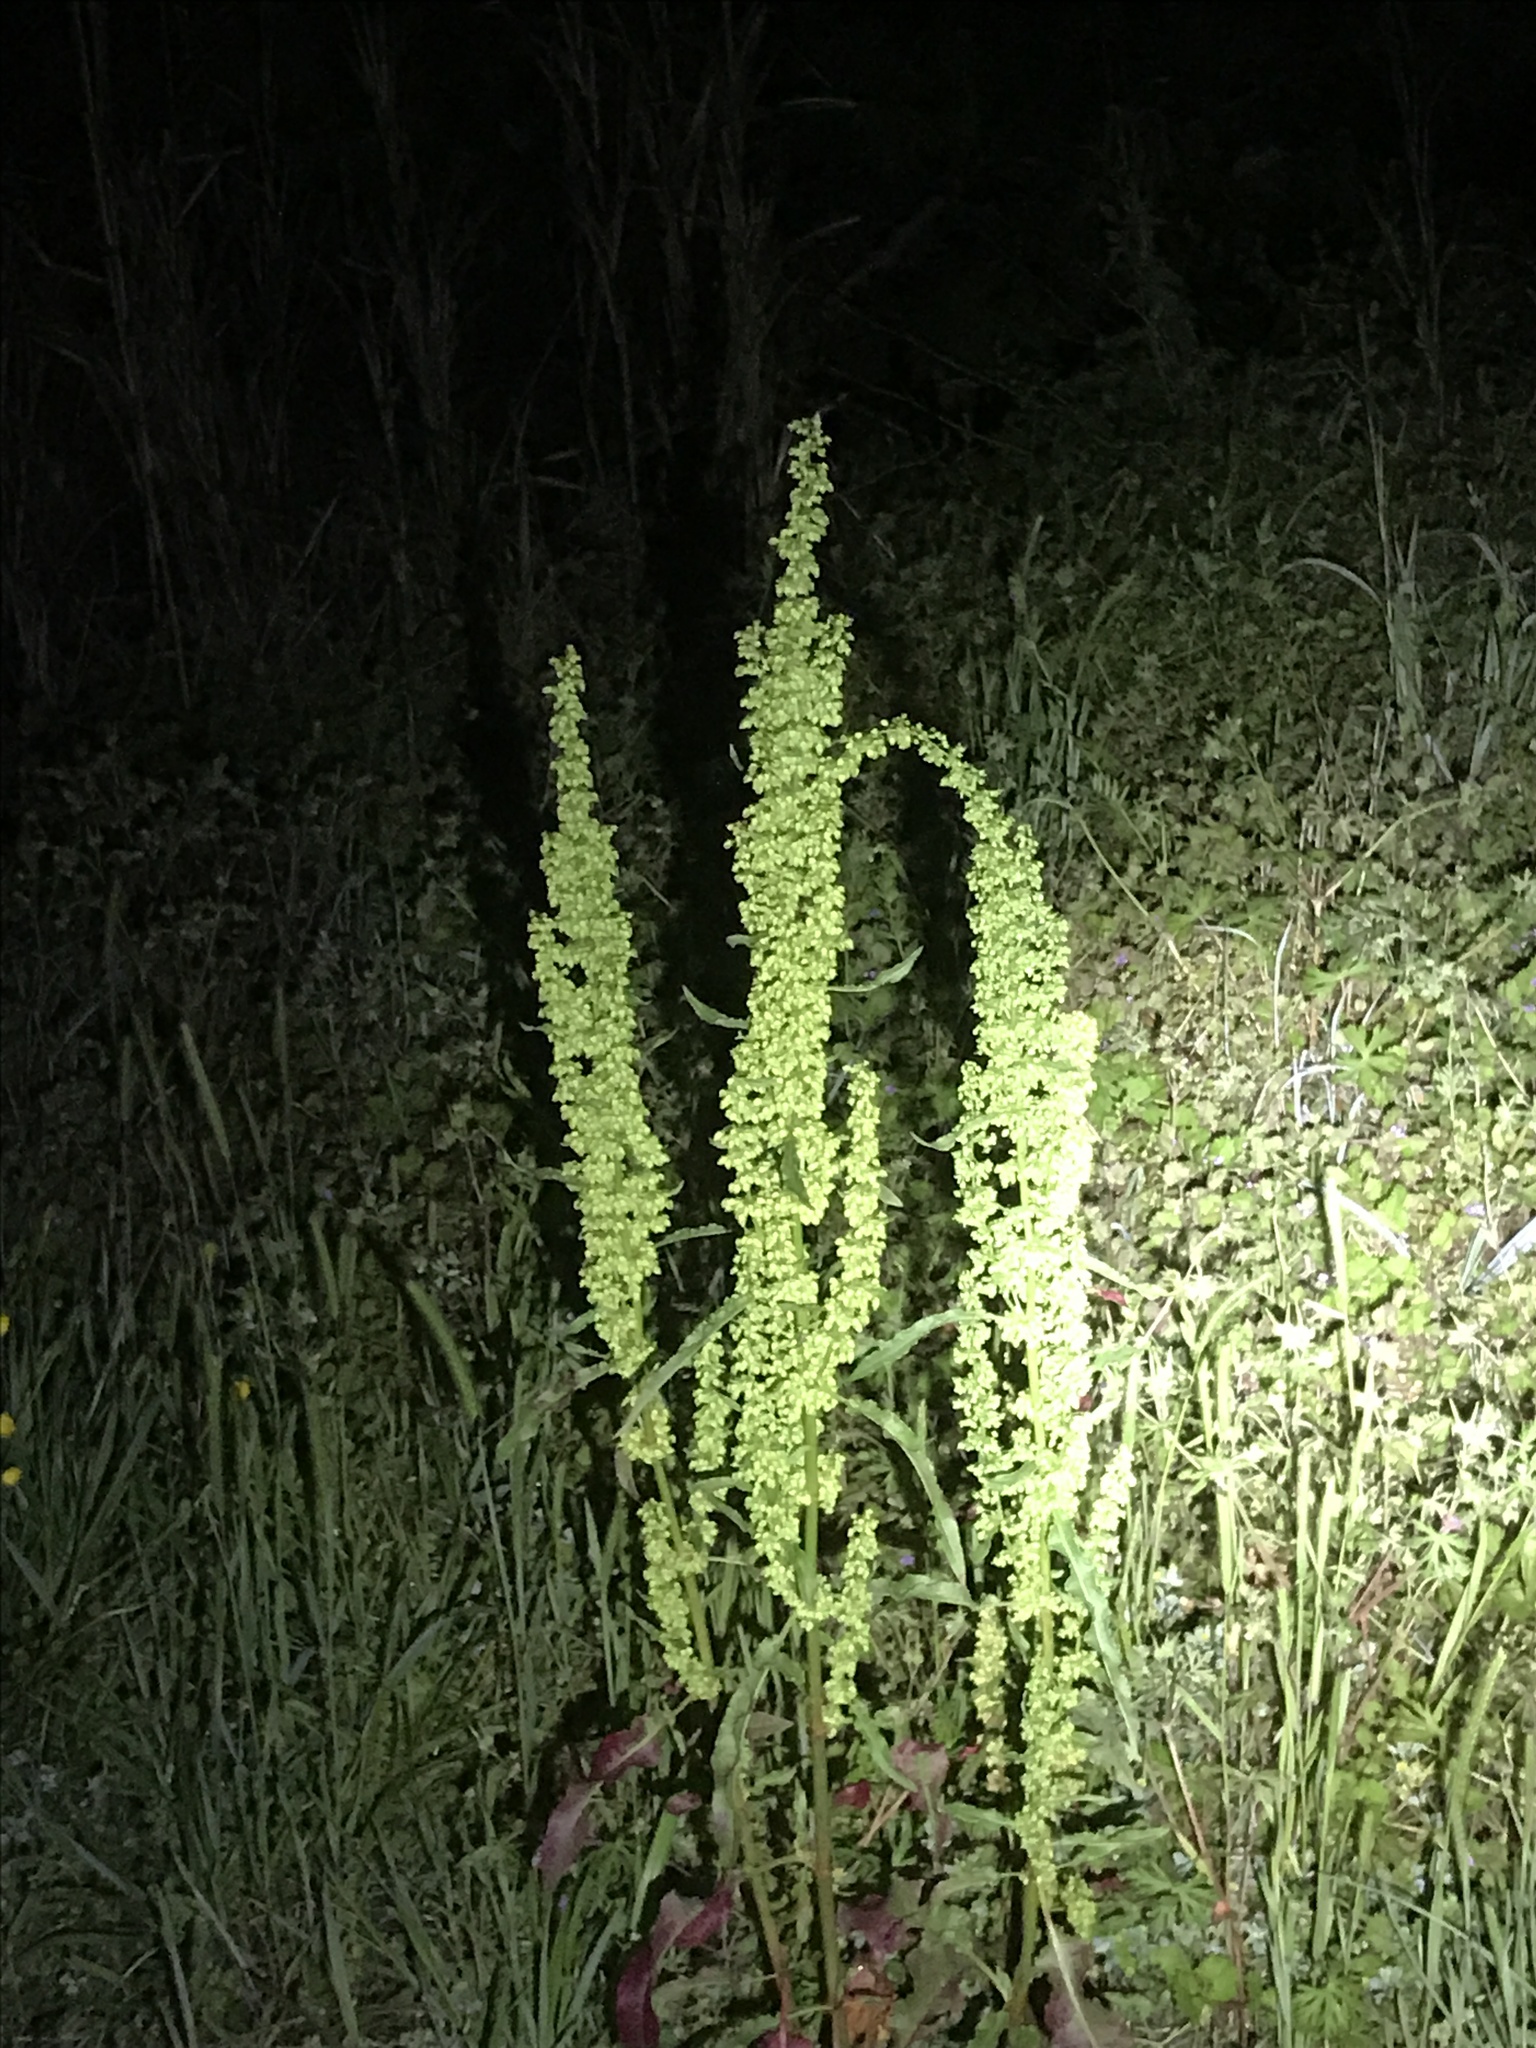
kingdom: Plantae
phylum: Tracheophyta
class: Magnoliopsida
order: Caryophyllales
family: Polygonaceae
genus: Rumex
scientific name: Rumex crispus
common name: Curled dock
